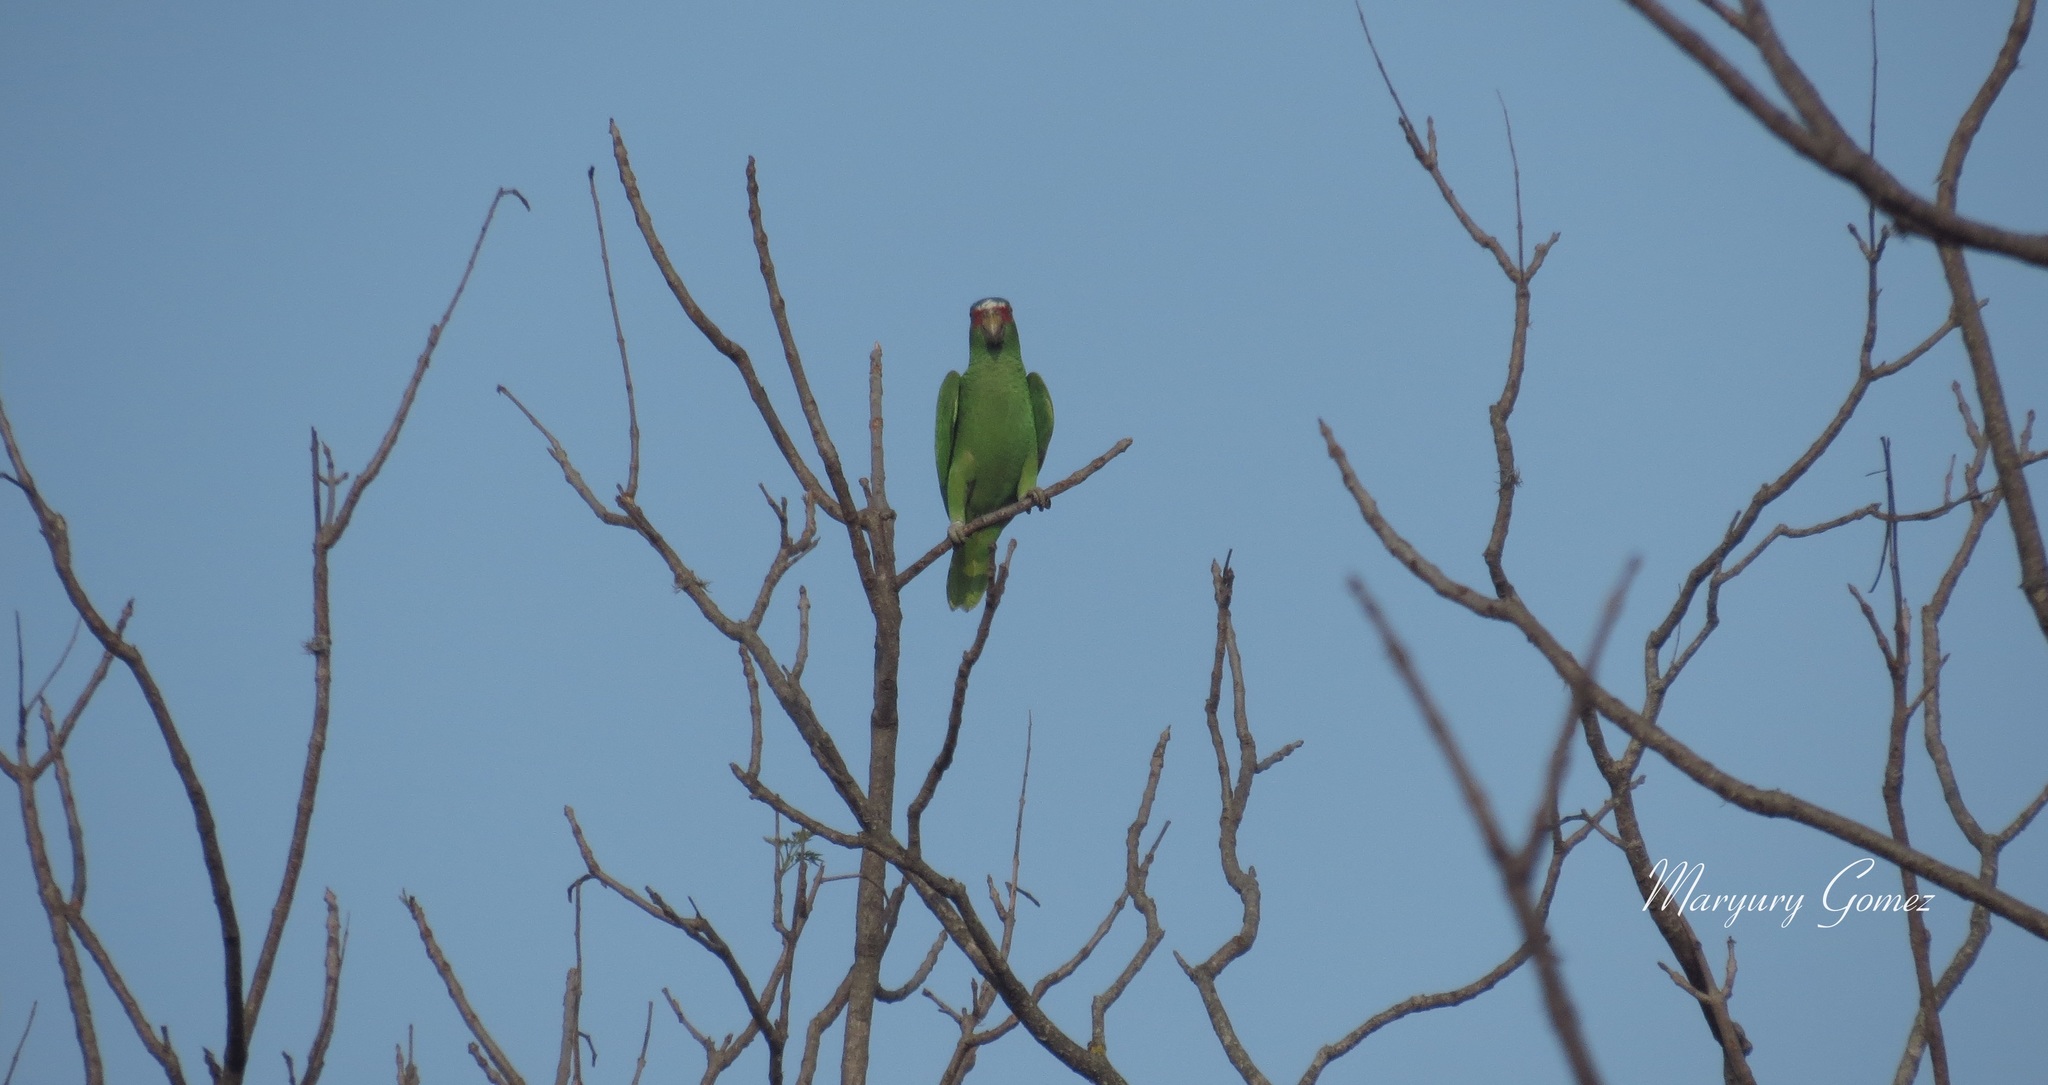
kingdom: Animalia
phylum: Chordata
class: Aves
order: Psittaciformes
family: Psittacidae
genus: Amazona
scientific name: Amazona albifrons
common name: White-fronted amazon
